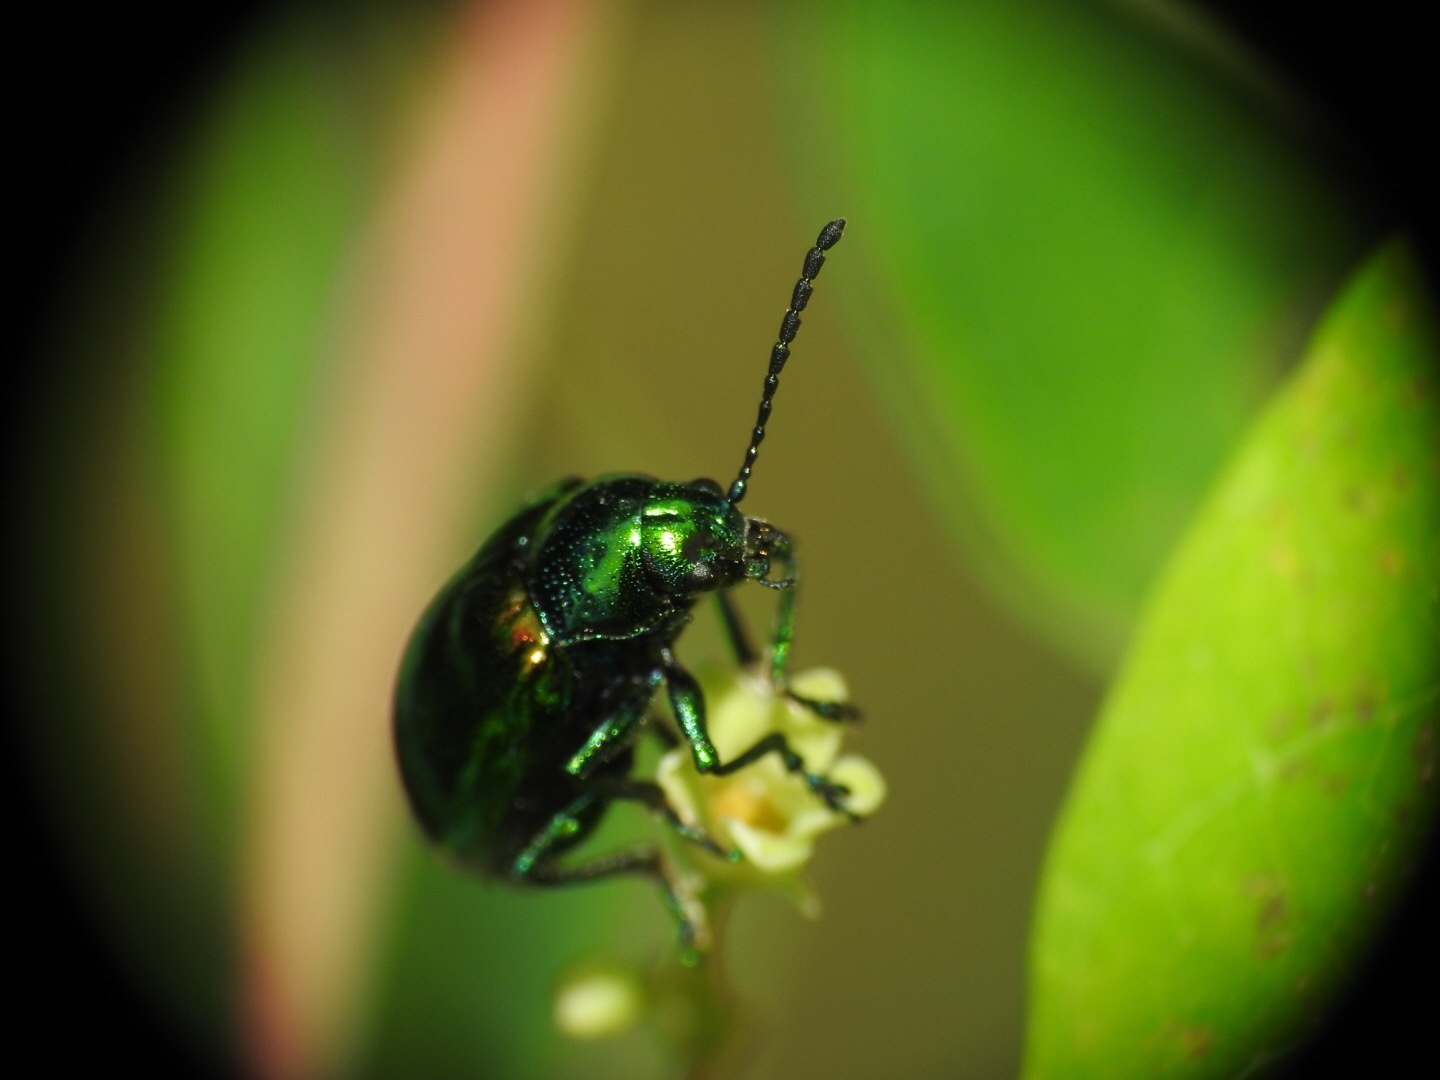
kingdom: Animalia
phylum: Arthropoda
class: Insecta
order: Coleoptera
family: Chrysomelidae
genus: Chrysochus
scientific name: Chrysochus auratus
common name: Dogbane leaf beetle
